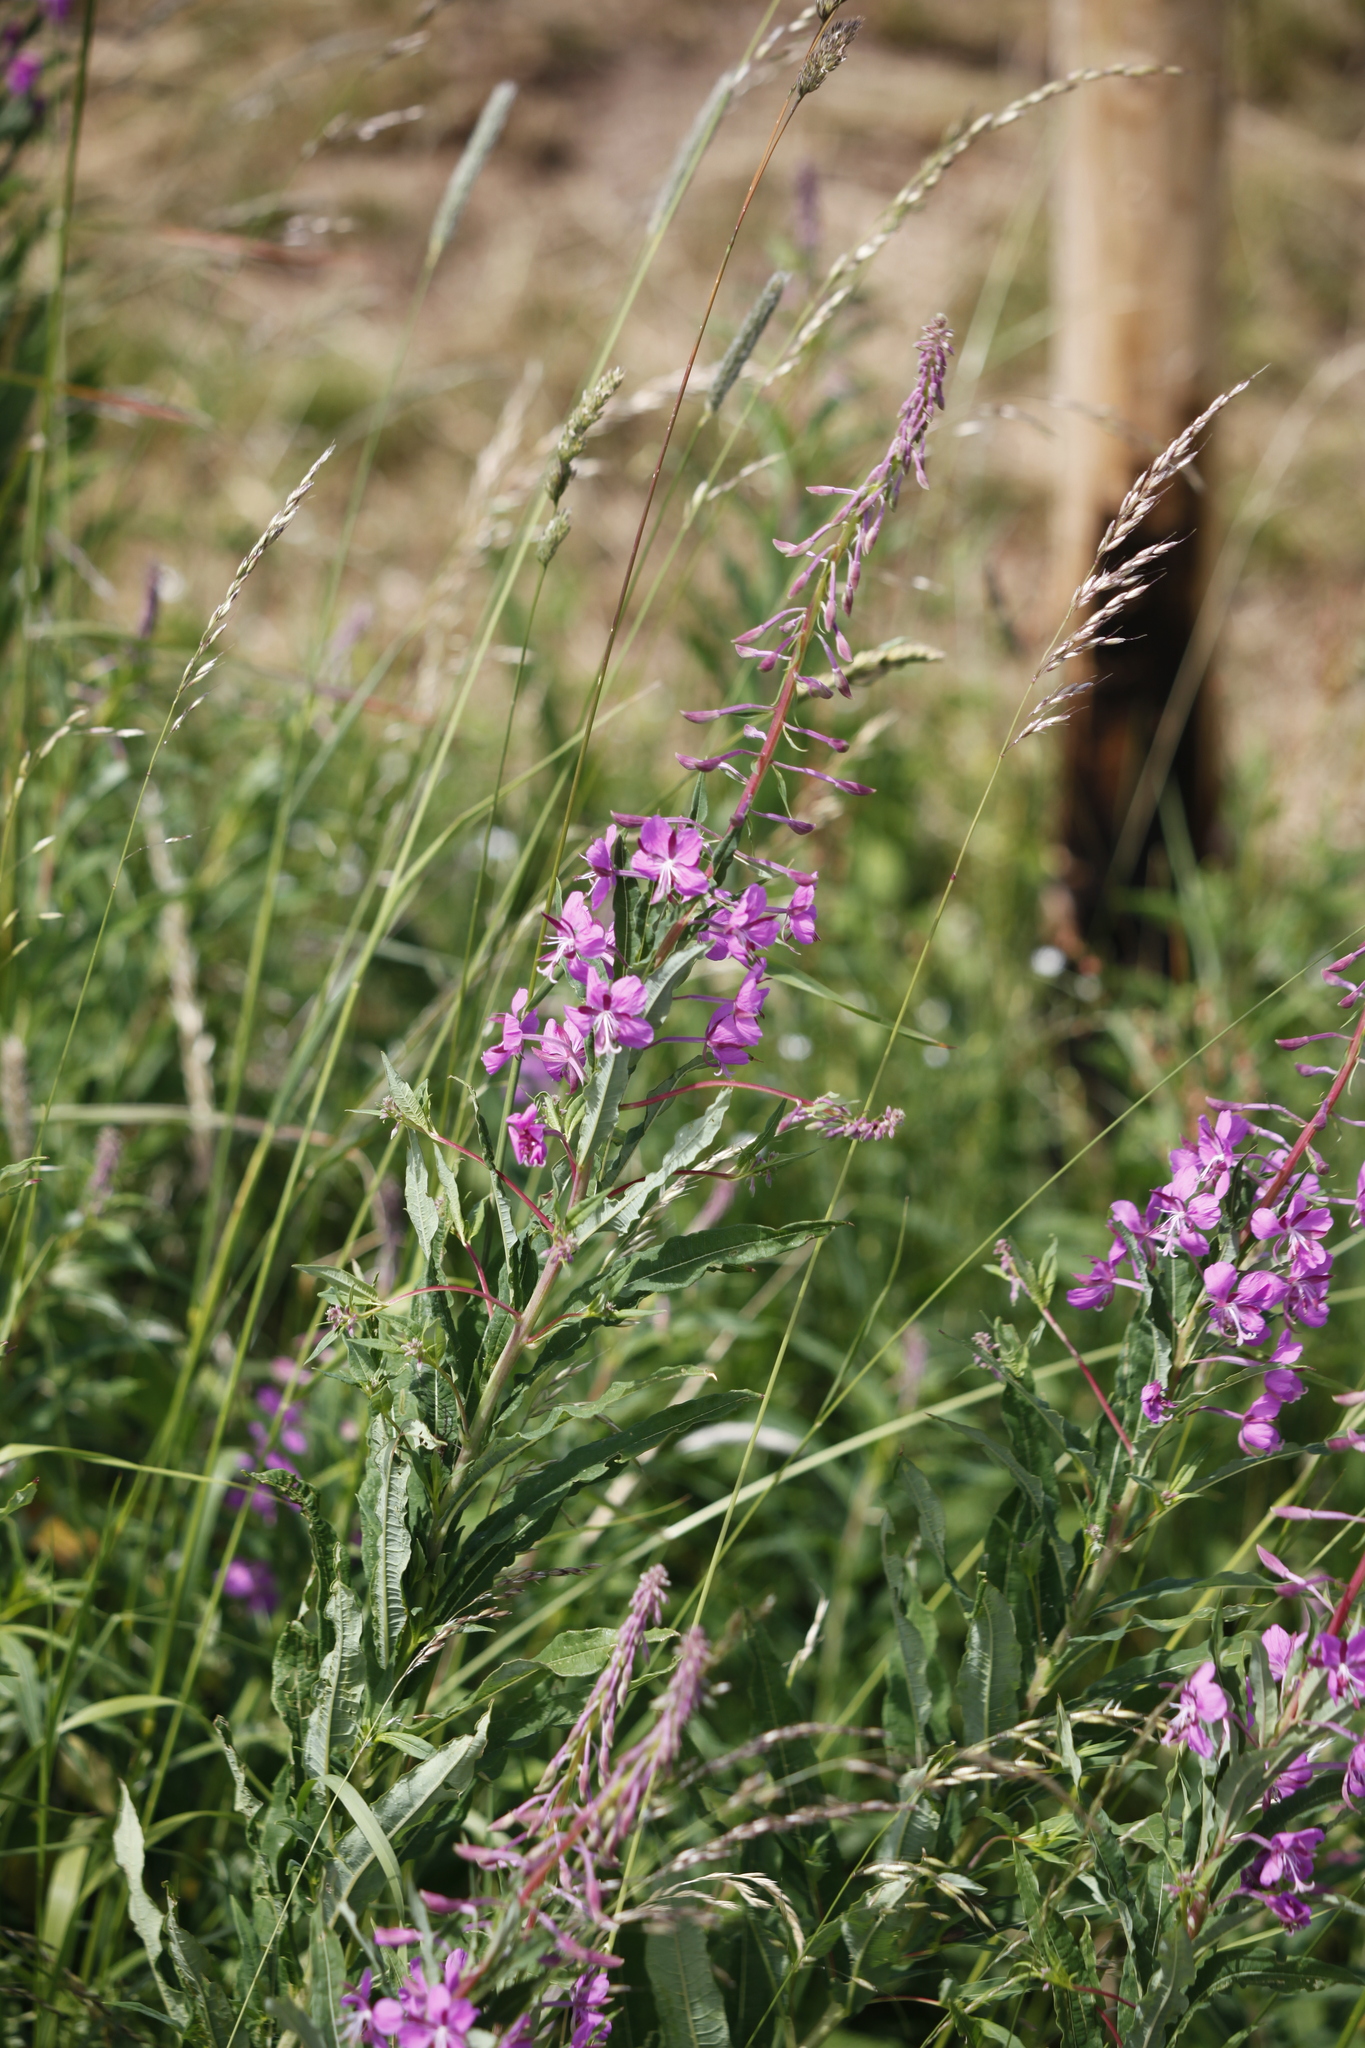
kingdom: Plantae
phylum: Tracheophyta
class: Magnoliopsida
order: Myrtales
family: Onagraceae
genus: Chamaenerion
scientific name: Chamaenerion angustifolium
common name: Fireweed
